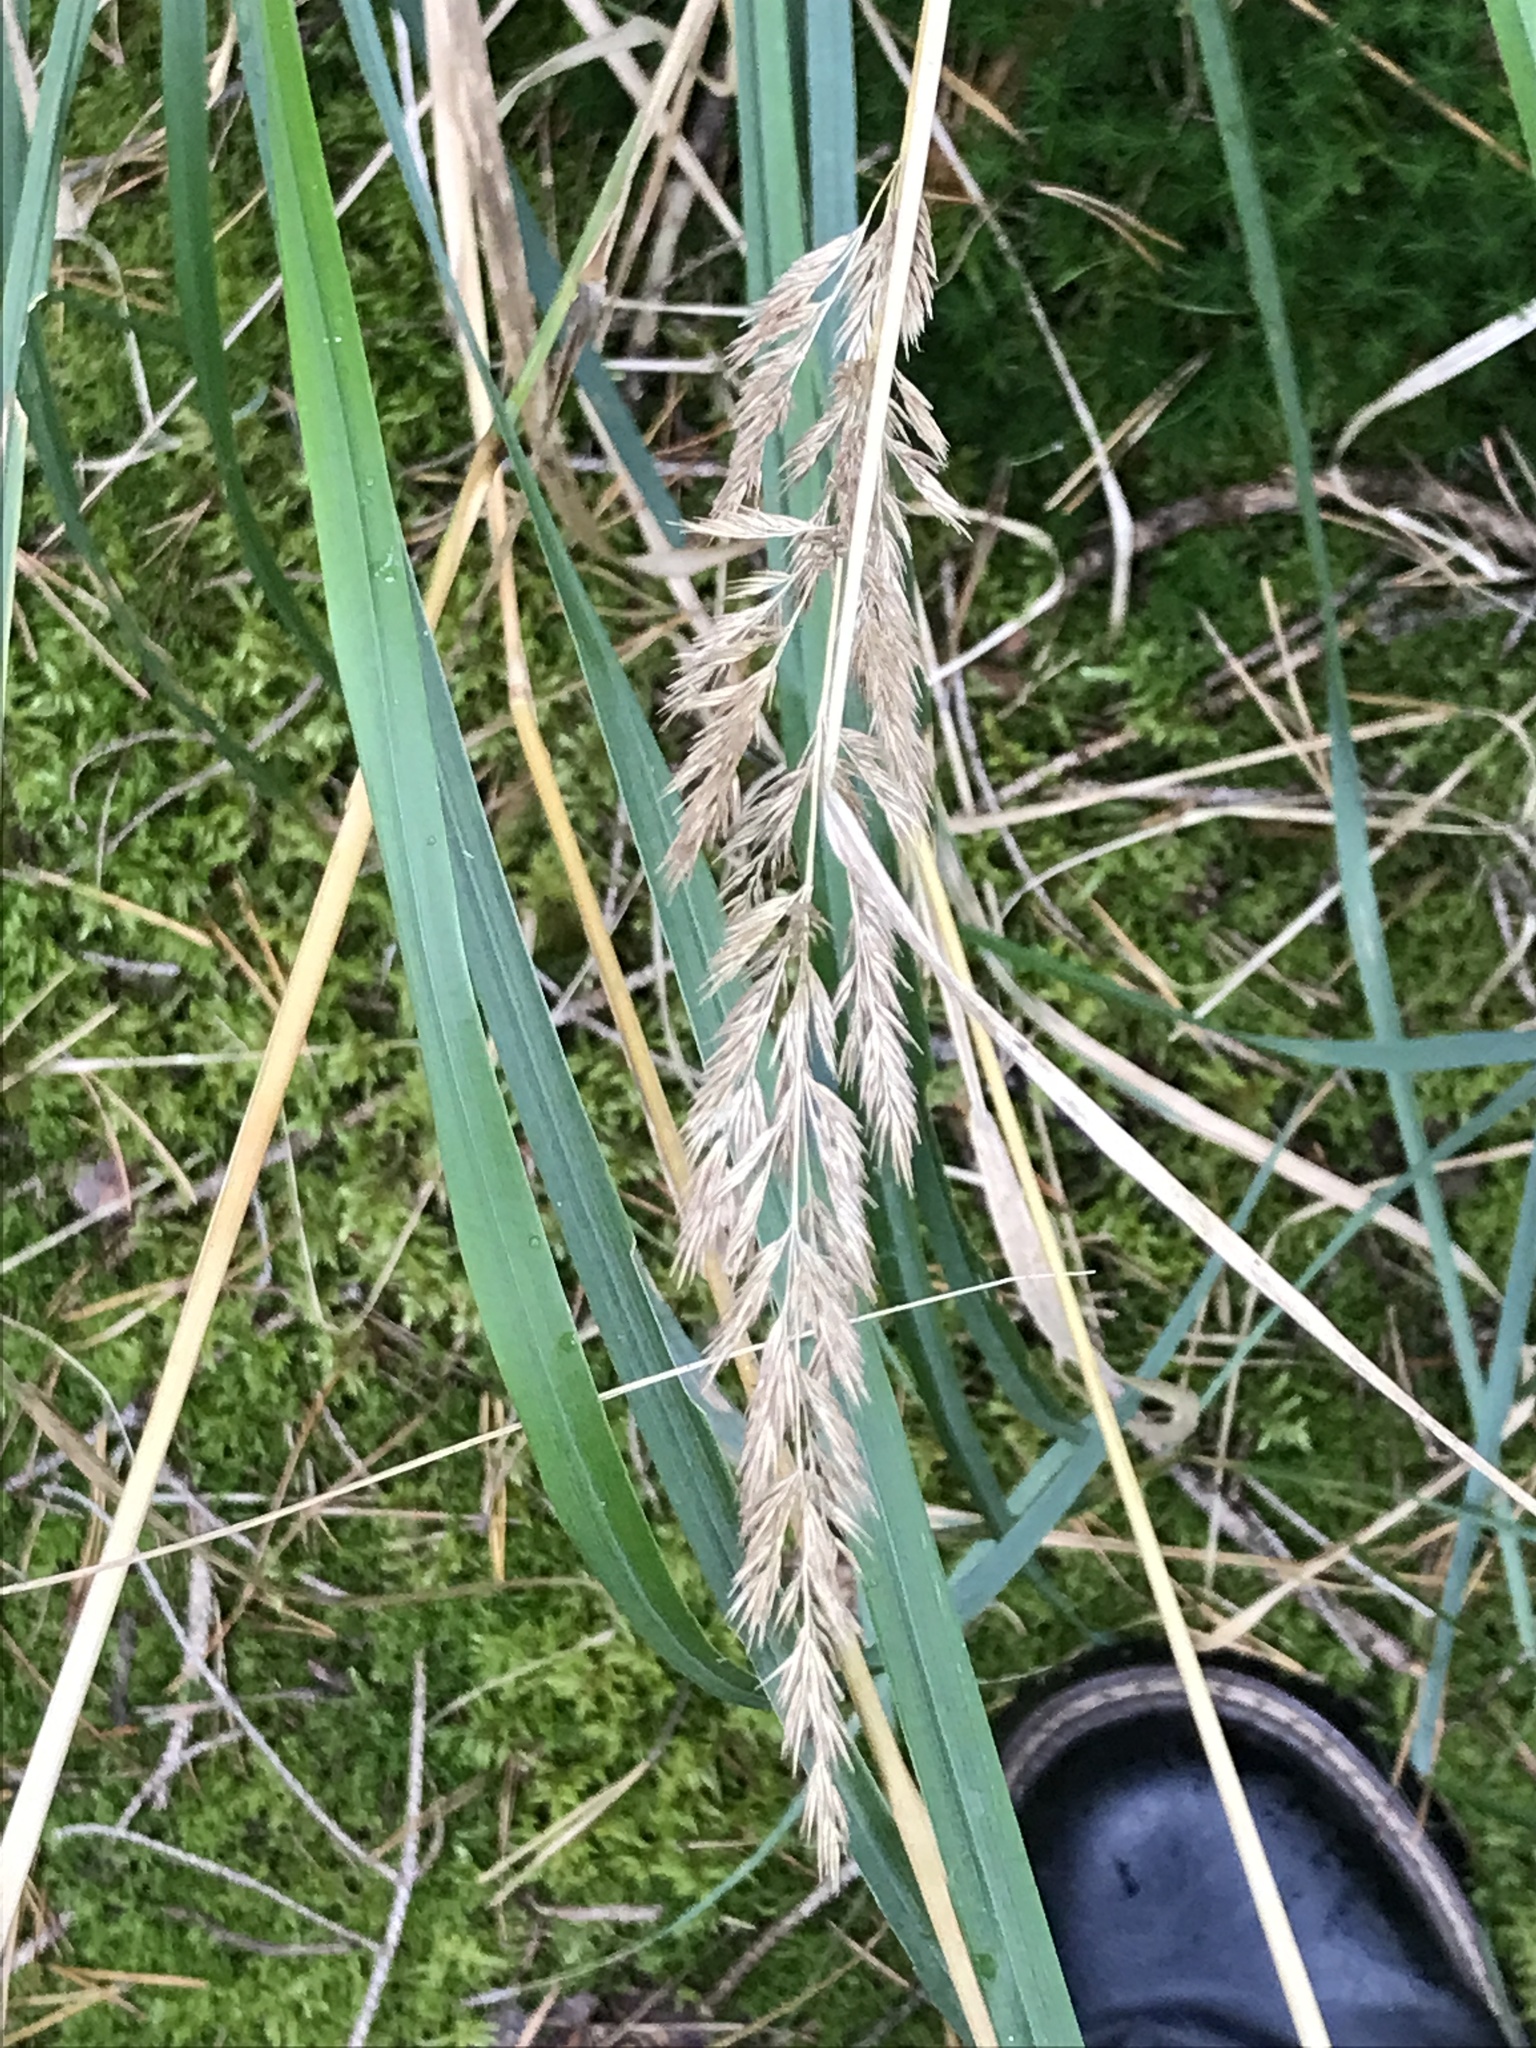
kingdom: Plantae
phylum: Tracheophyta
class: Liliopsida
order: Poales
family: Poaceae
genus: Calamagrostis
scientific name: Calamagrostis epigejos
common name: Wood small-reed
